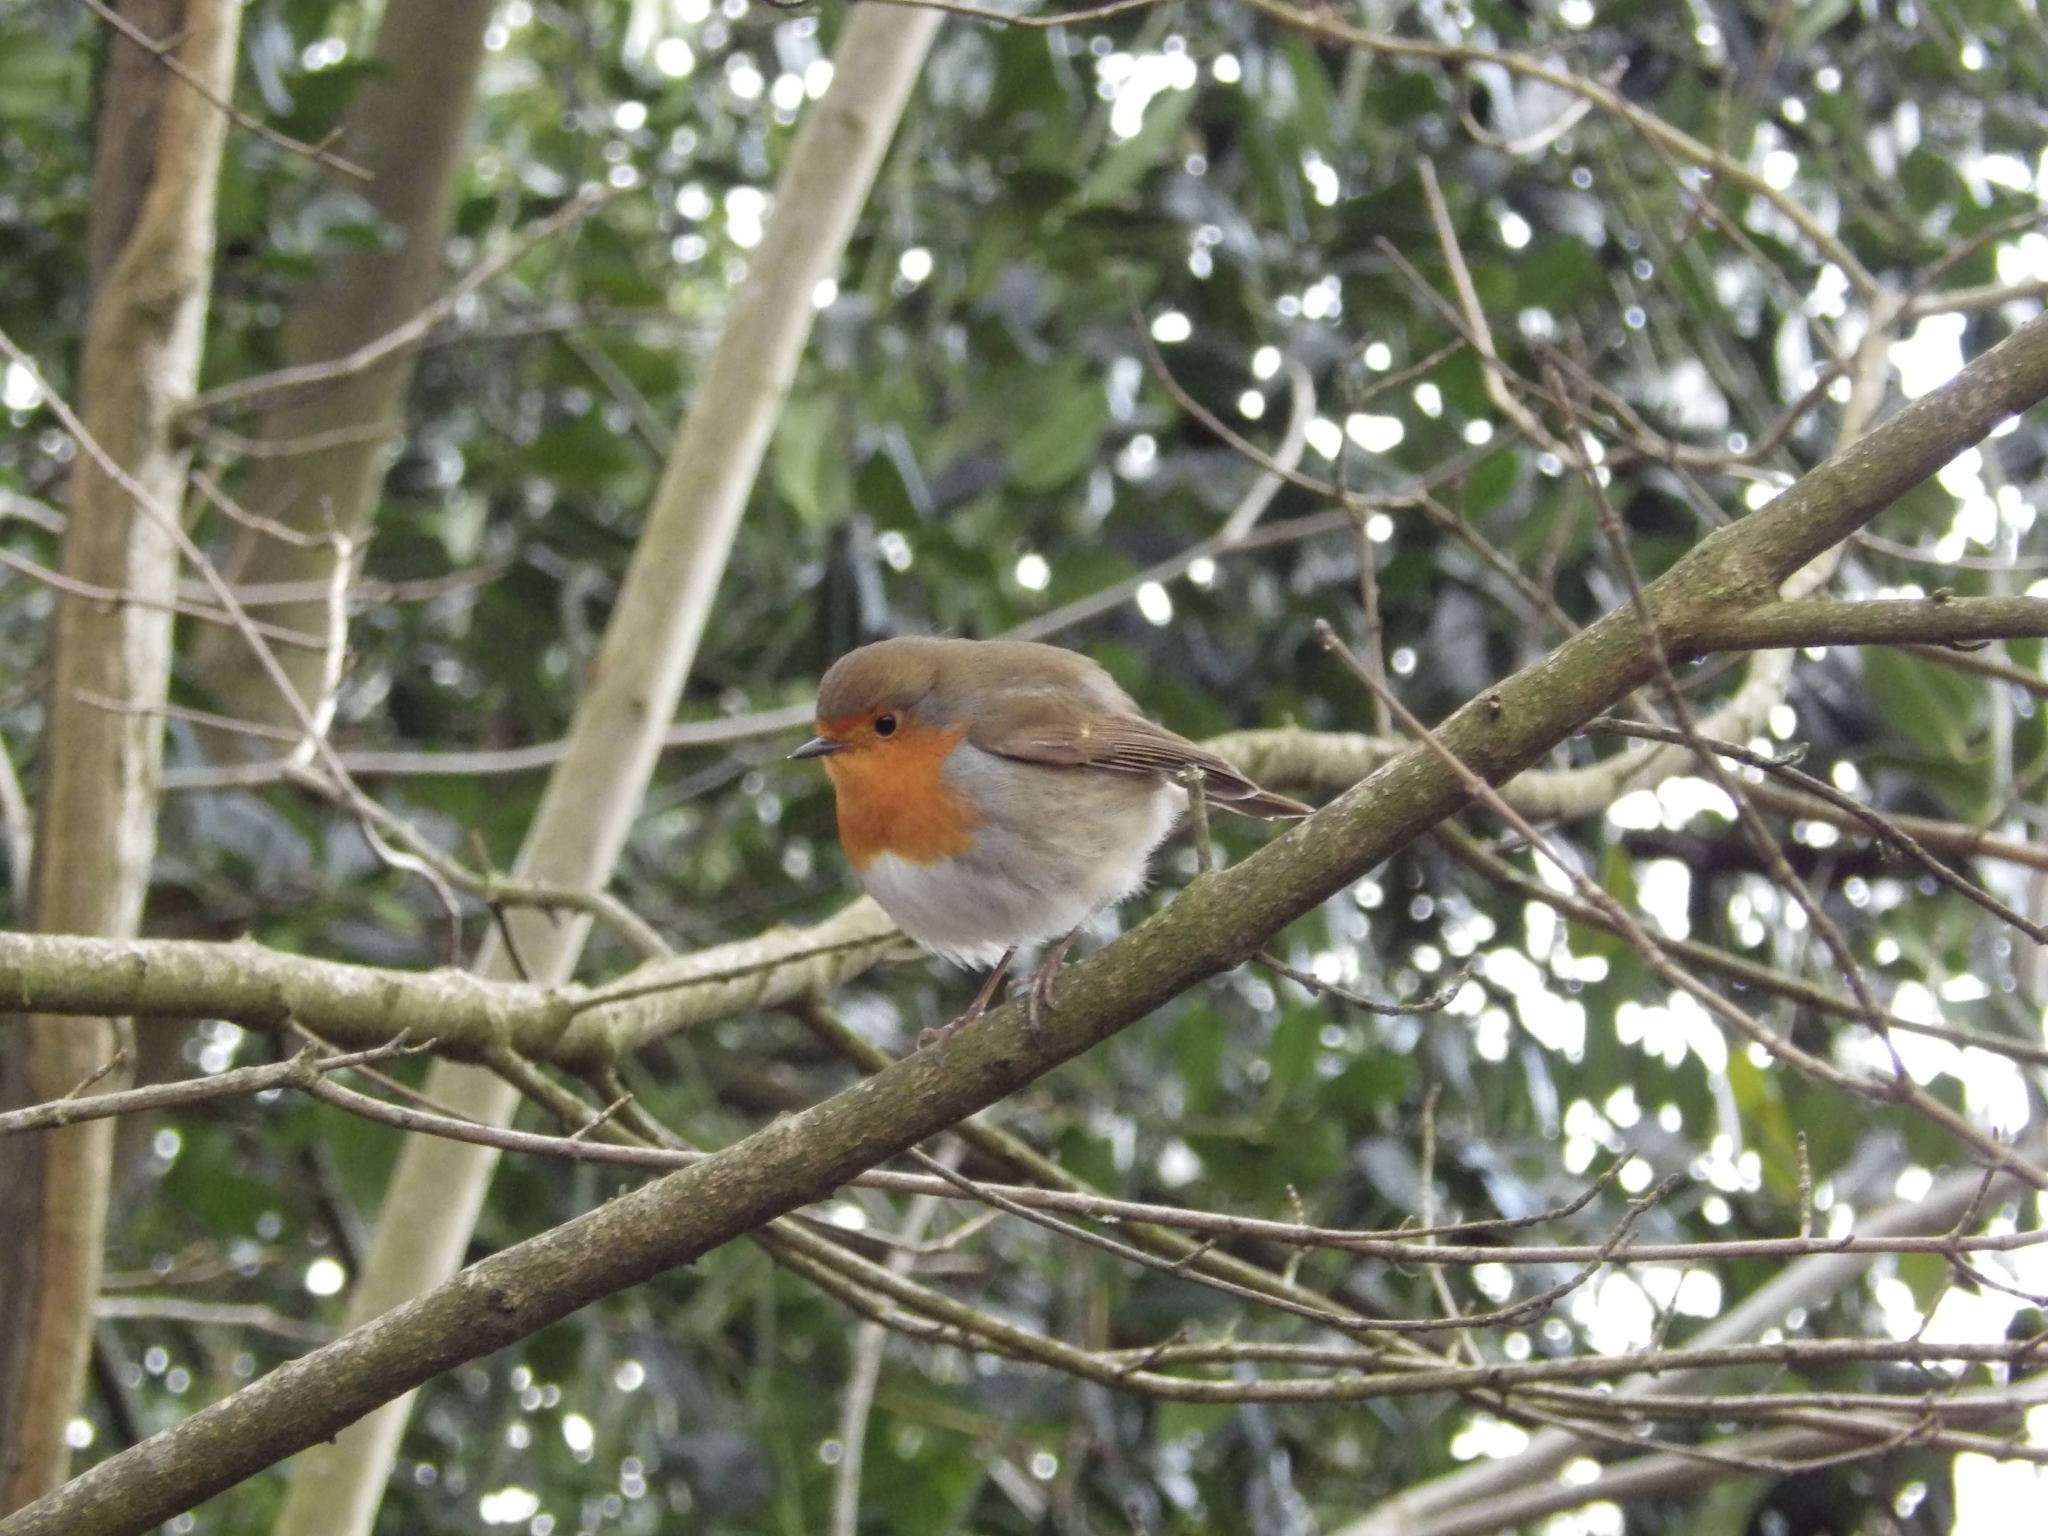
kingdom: Animalia
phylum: Chordata
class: Aves
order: Passeriformes
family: Muscicapidae
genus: Erithacus
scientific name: Erithacus rubecula
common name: European robin
